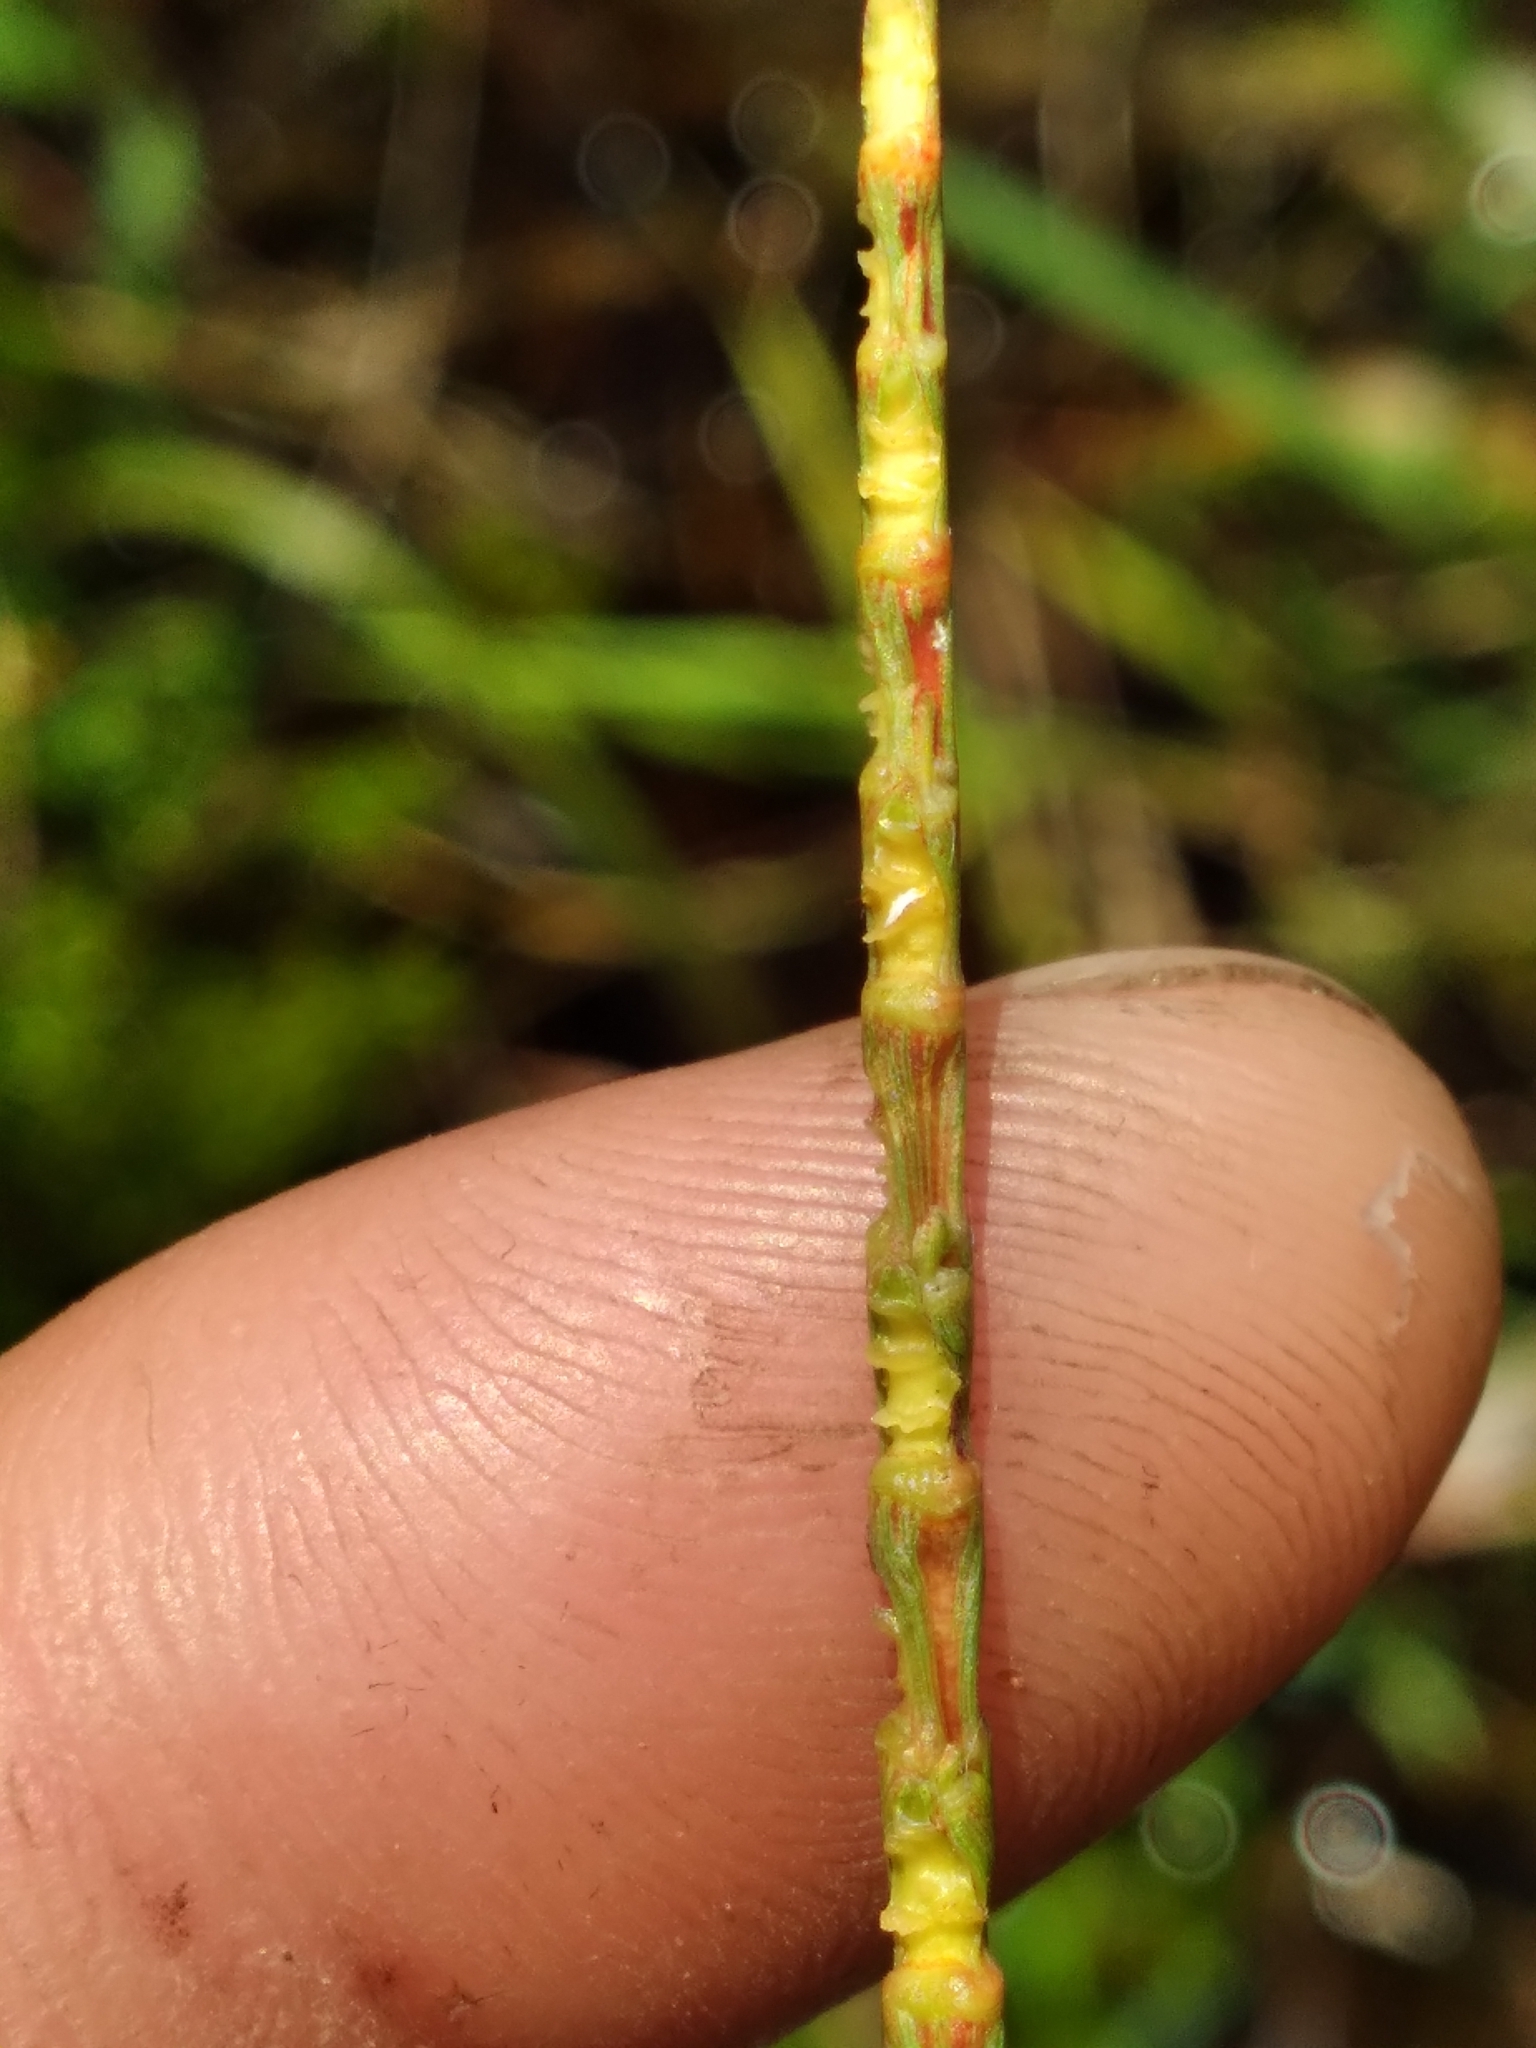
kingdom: Plantae
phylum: Tracheophyta
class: Liliopsida
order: Poales
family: Poaceae
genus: Rottboellia
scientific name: Rottboellia rugosa
